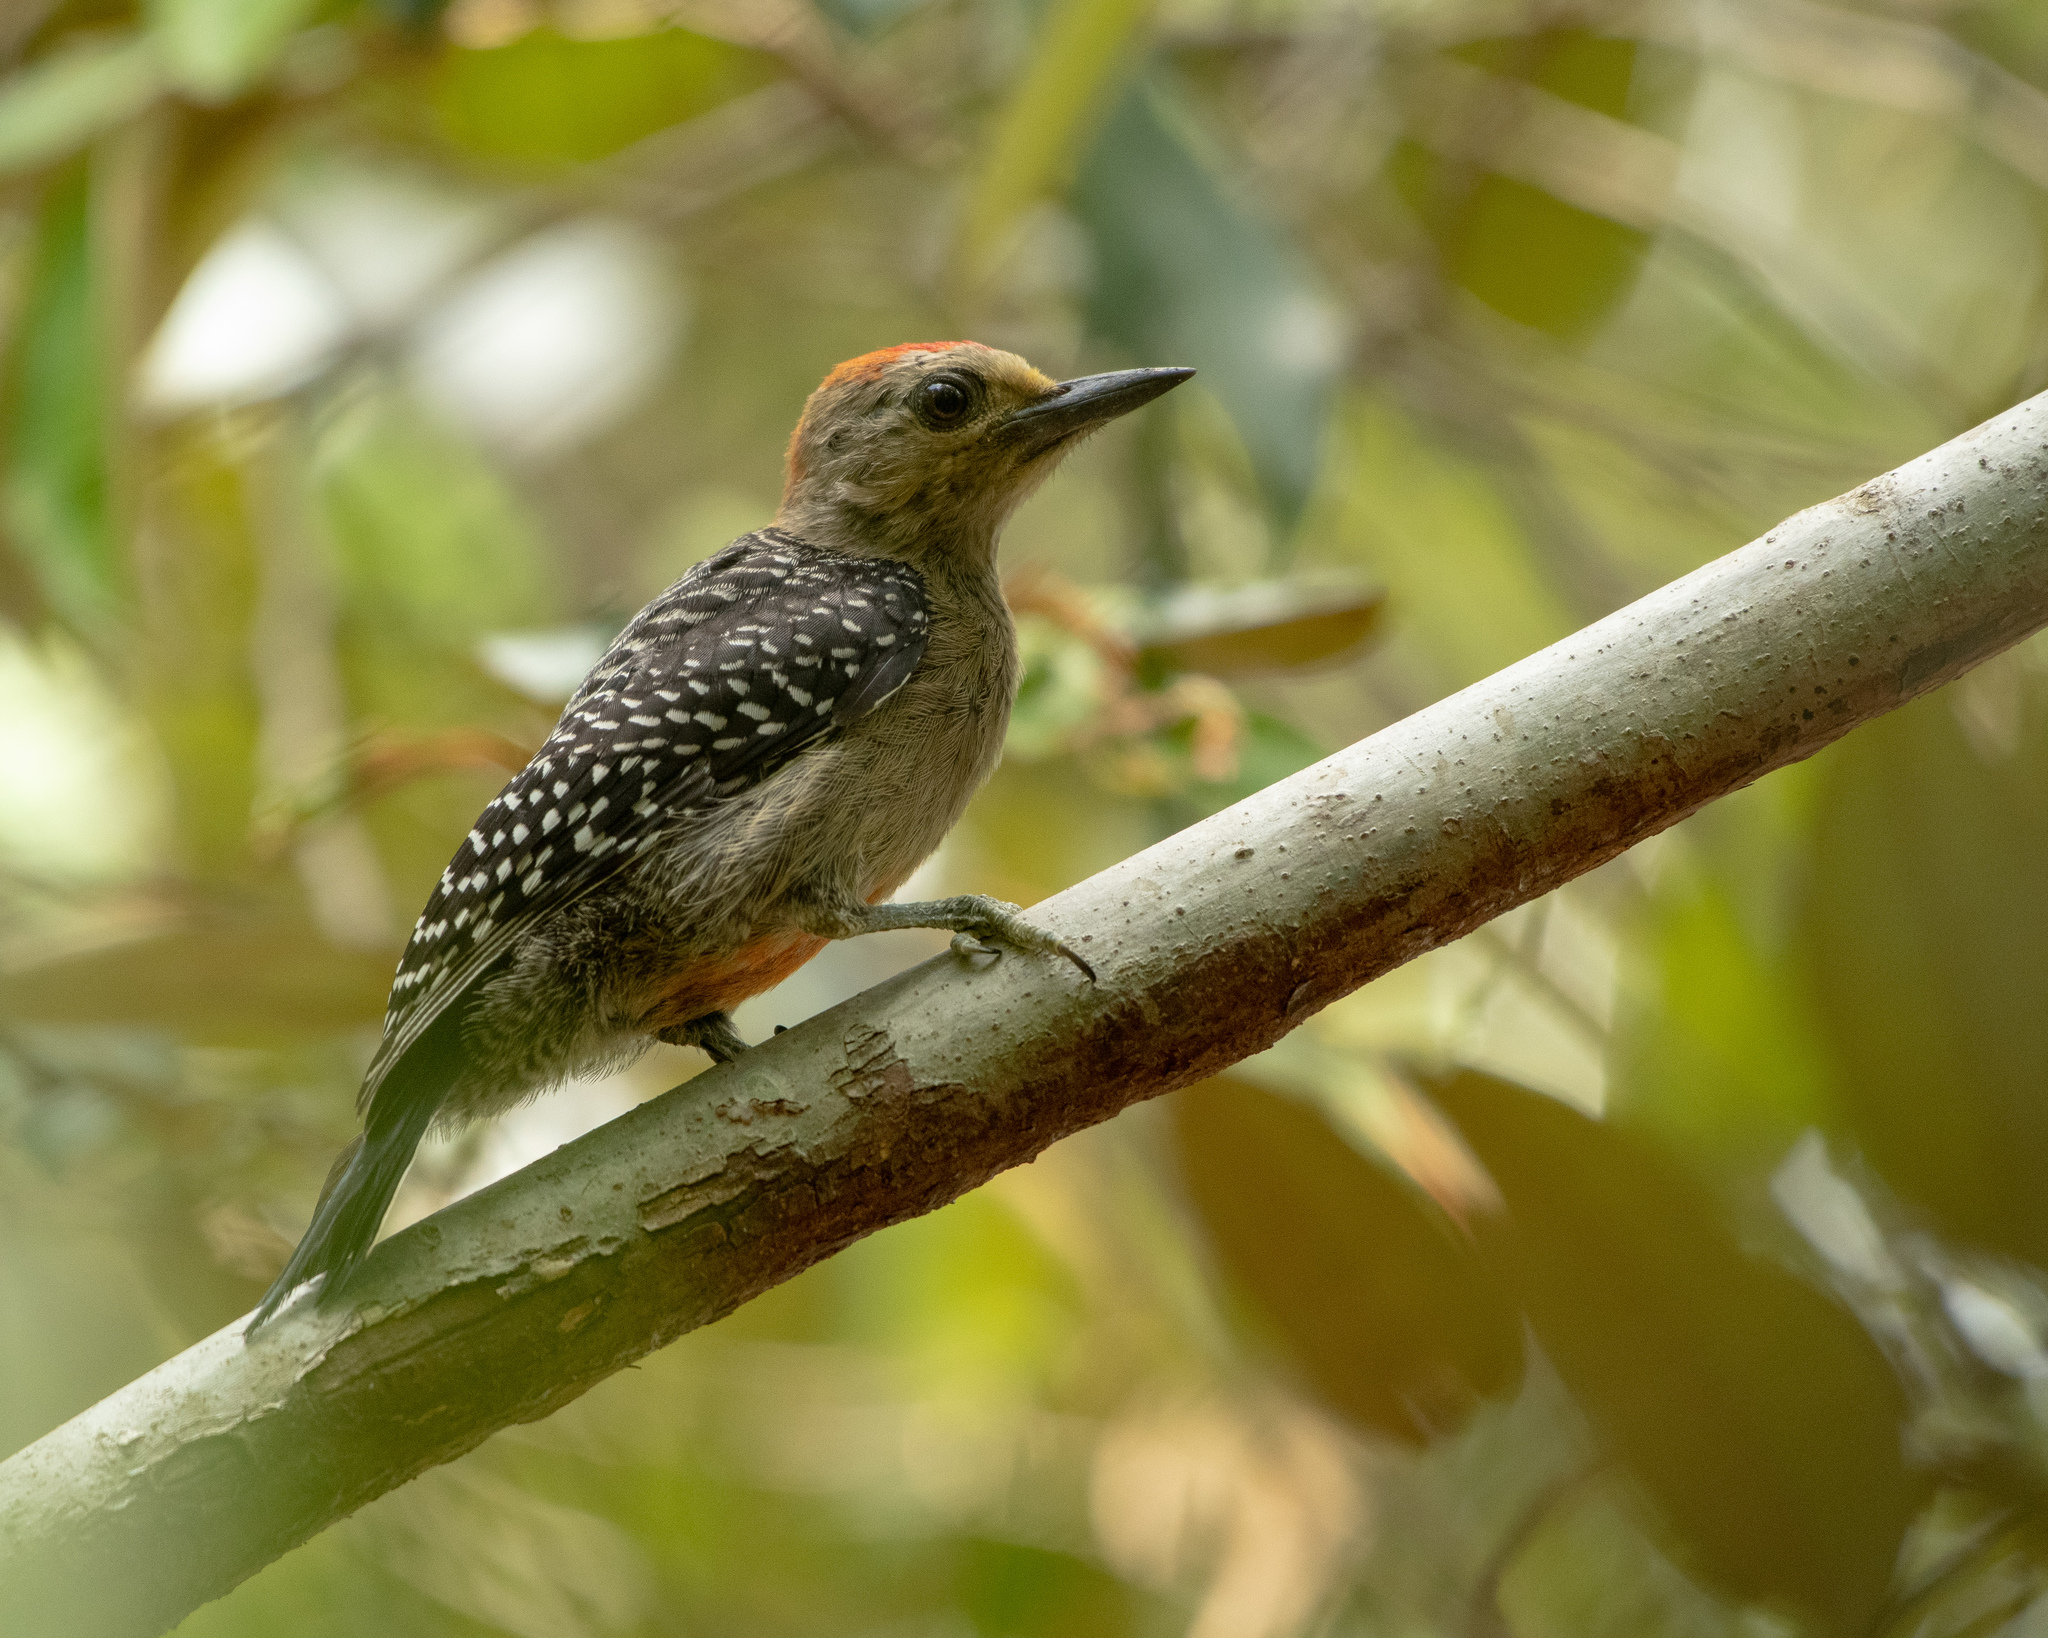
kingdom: Animalia
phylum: Chordata
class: Aves
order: Piciformes
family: Picidae
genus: Melanerpes
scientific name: Melanerpes pygmaeus
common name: Yucatan woodpecker
